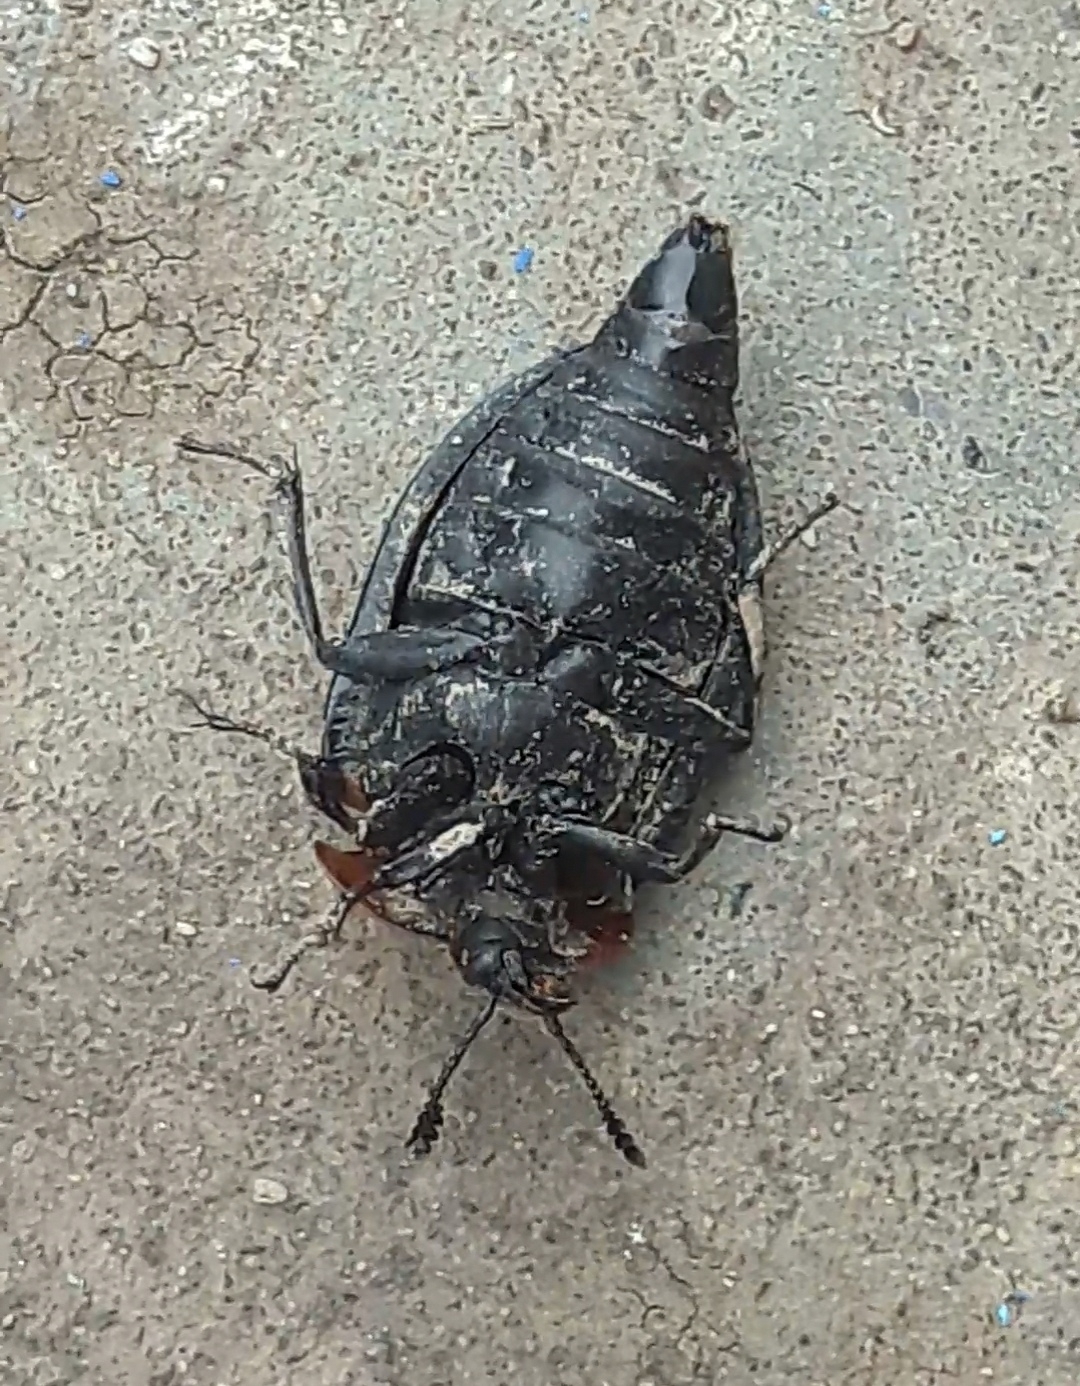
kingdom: Animalia
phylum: Arthropoda
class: Insecta
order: Coleoptera
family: Staphylinidae
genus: Oiceoptoma
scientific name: Oiceoptoma thoracicum
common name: Red-breasted carrion beetle
